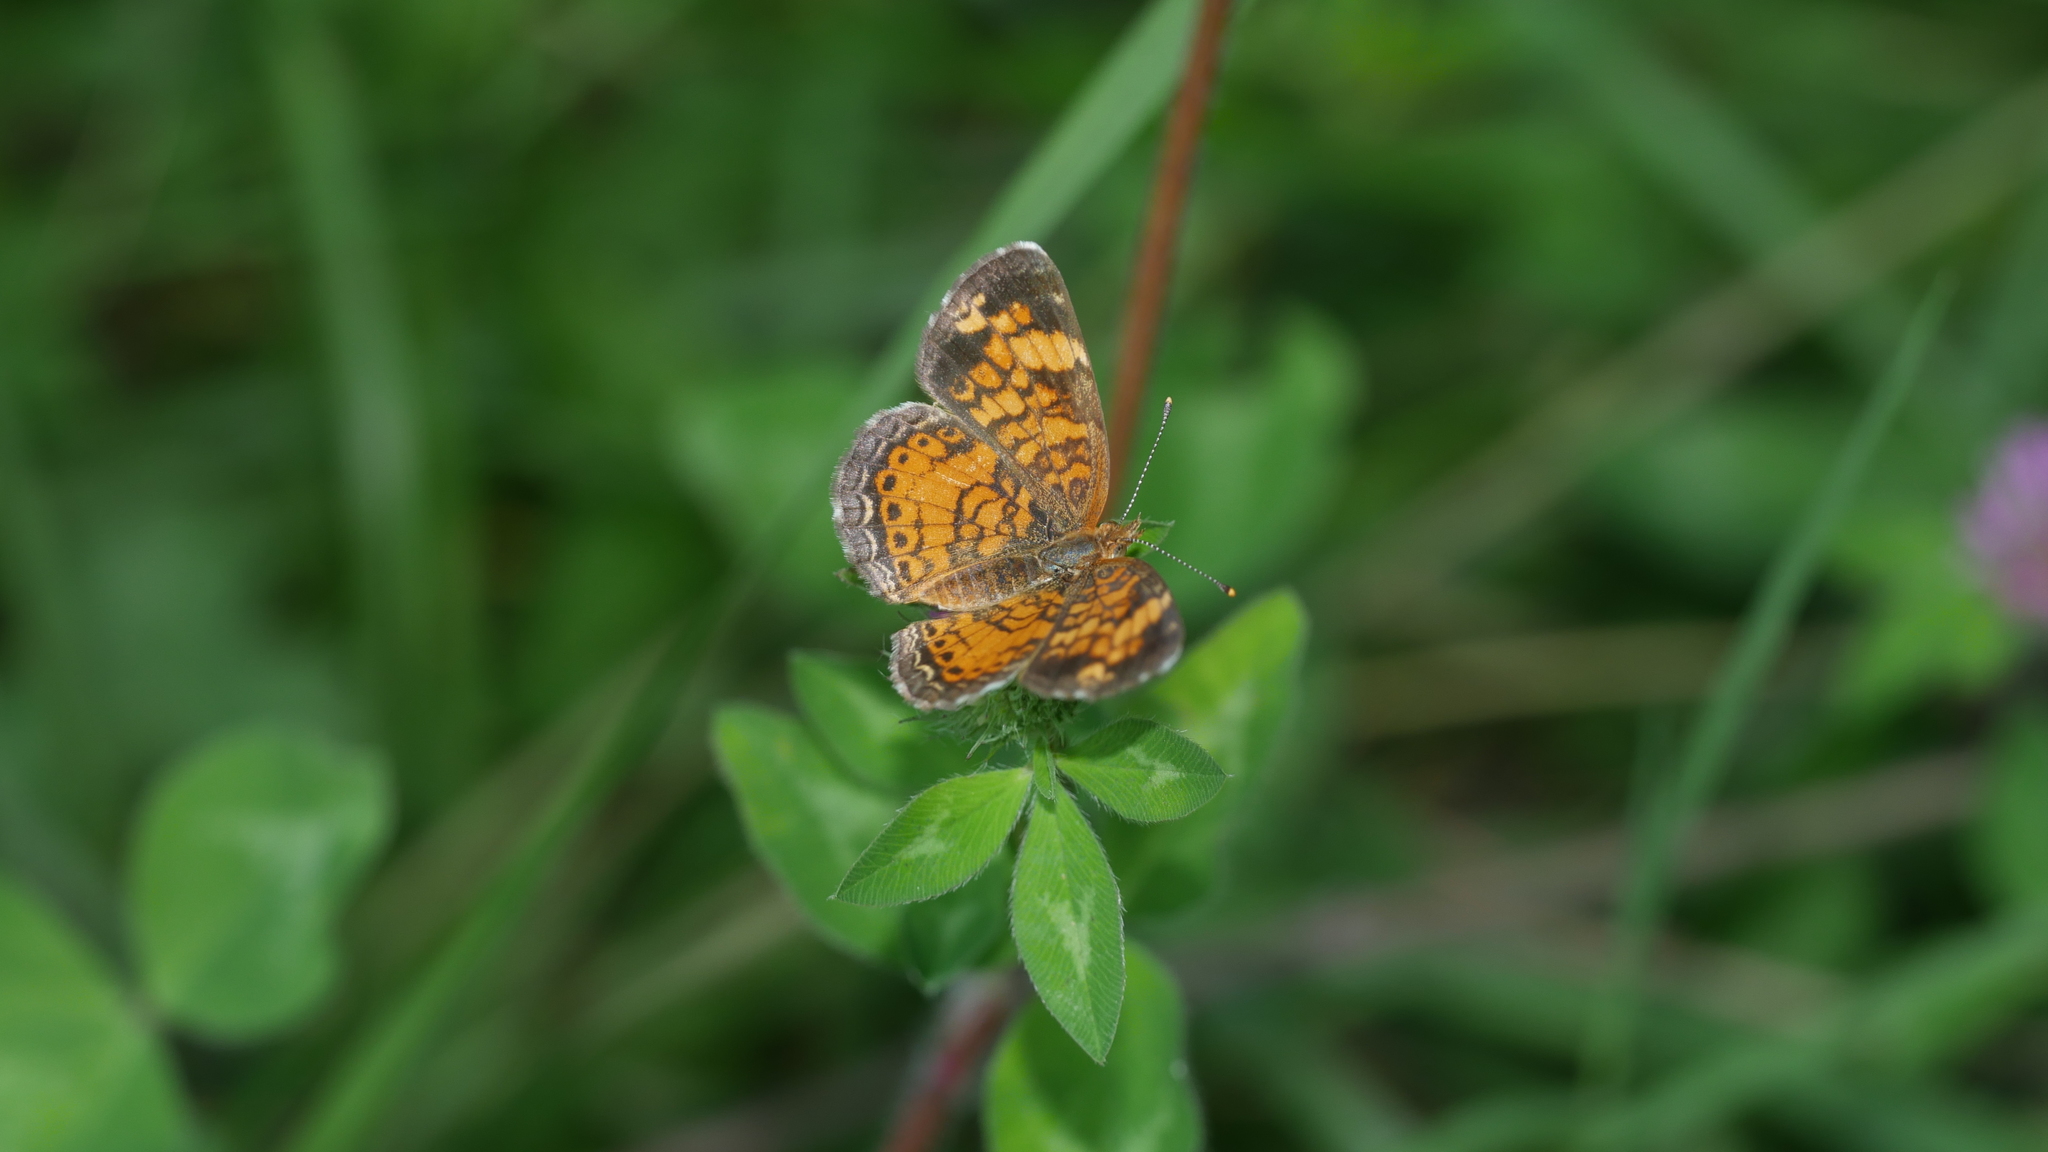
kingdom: Animalia
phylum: Arthropoda
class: Insecta
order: Lepidoptera
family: Nymphalidae
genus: Phyciodes
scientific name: Phyciodes tharos
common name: Pearl crescent
